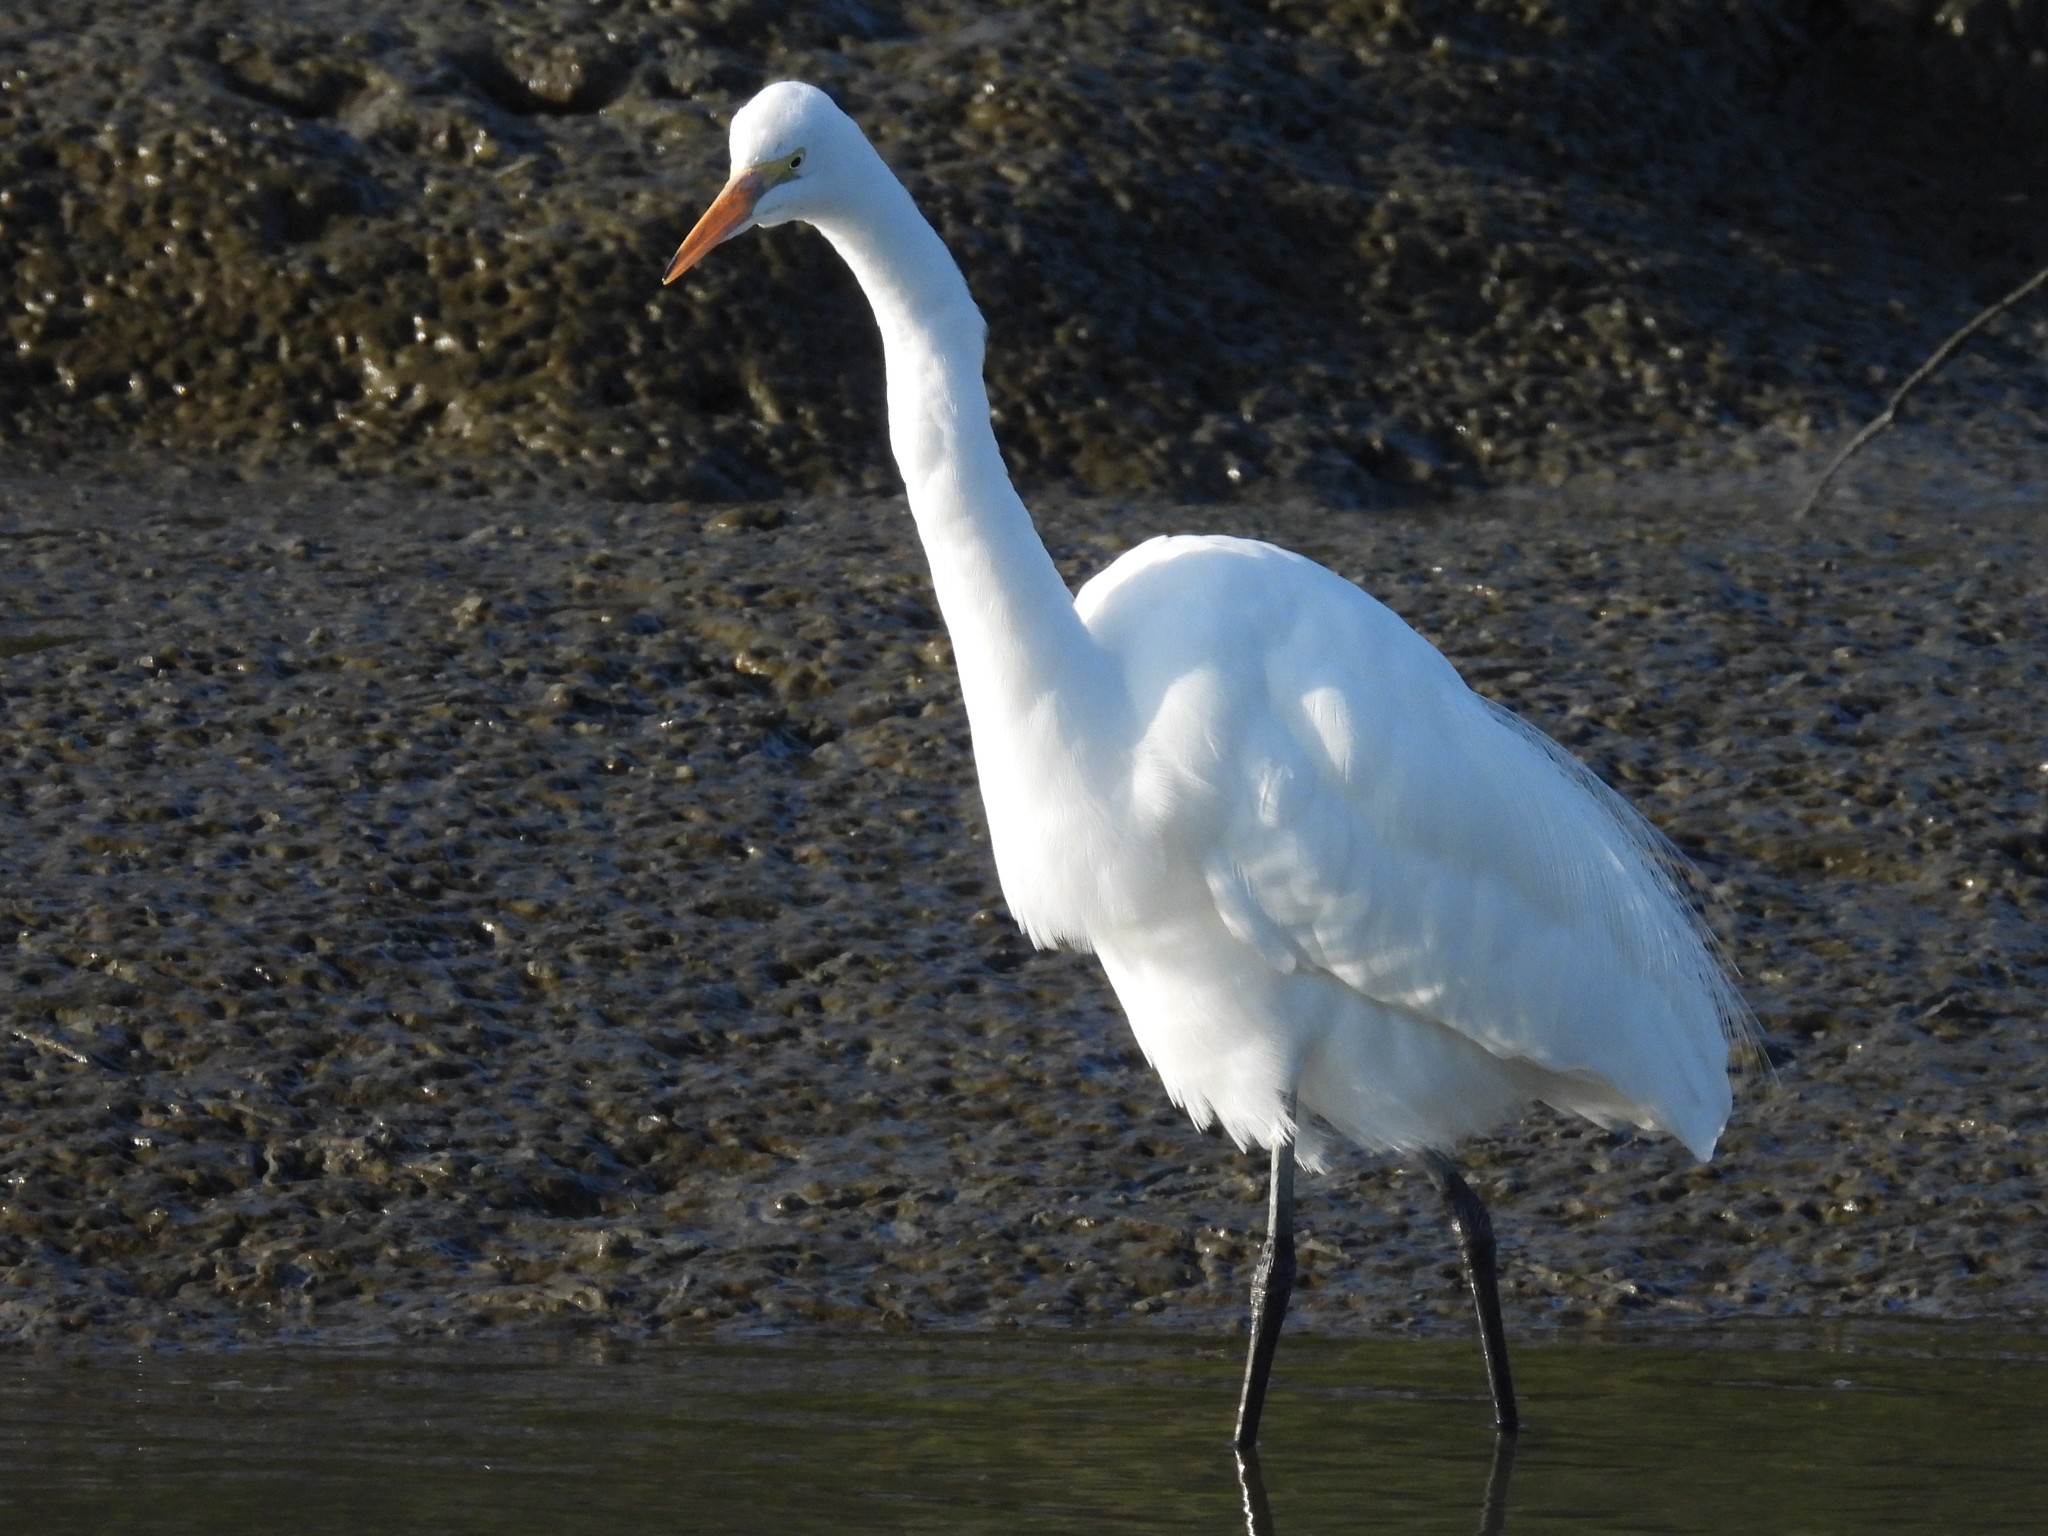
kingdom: Animalia
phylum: Chordata
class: Aves
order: Pelecaniformes
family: Ardeidae
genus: Ardea
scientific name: Ardea alba
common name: Great egret
